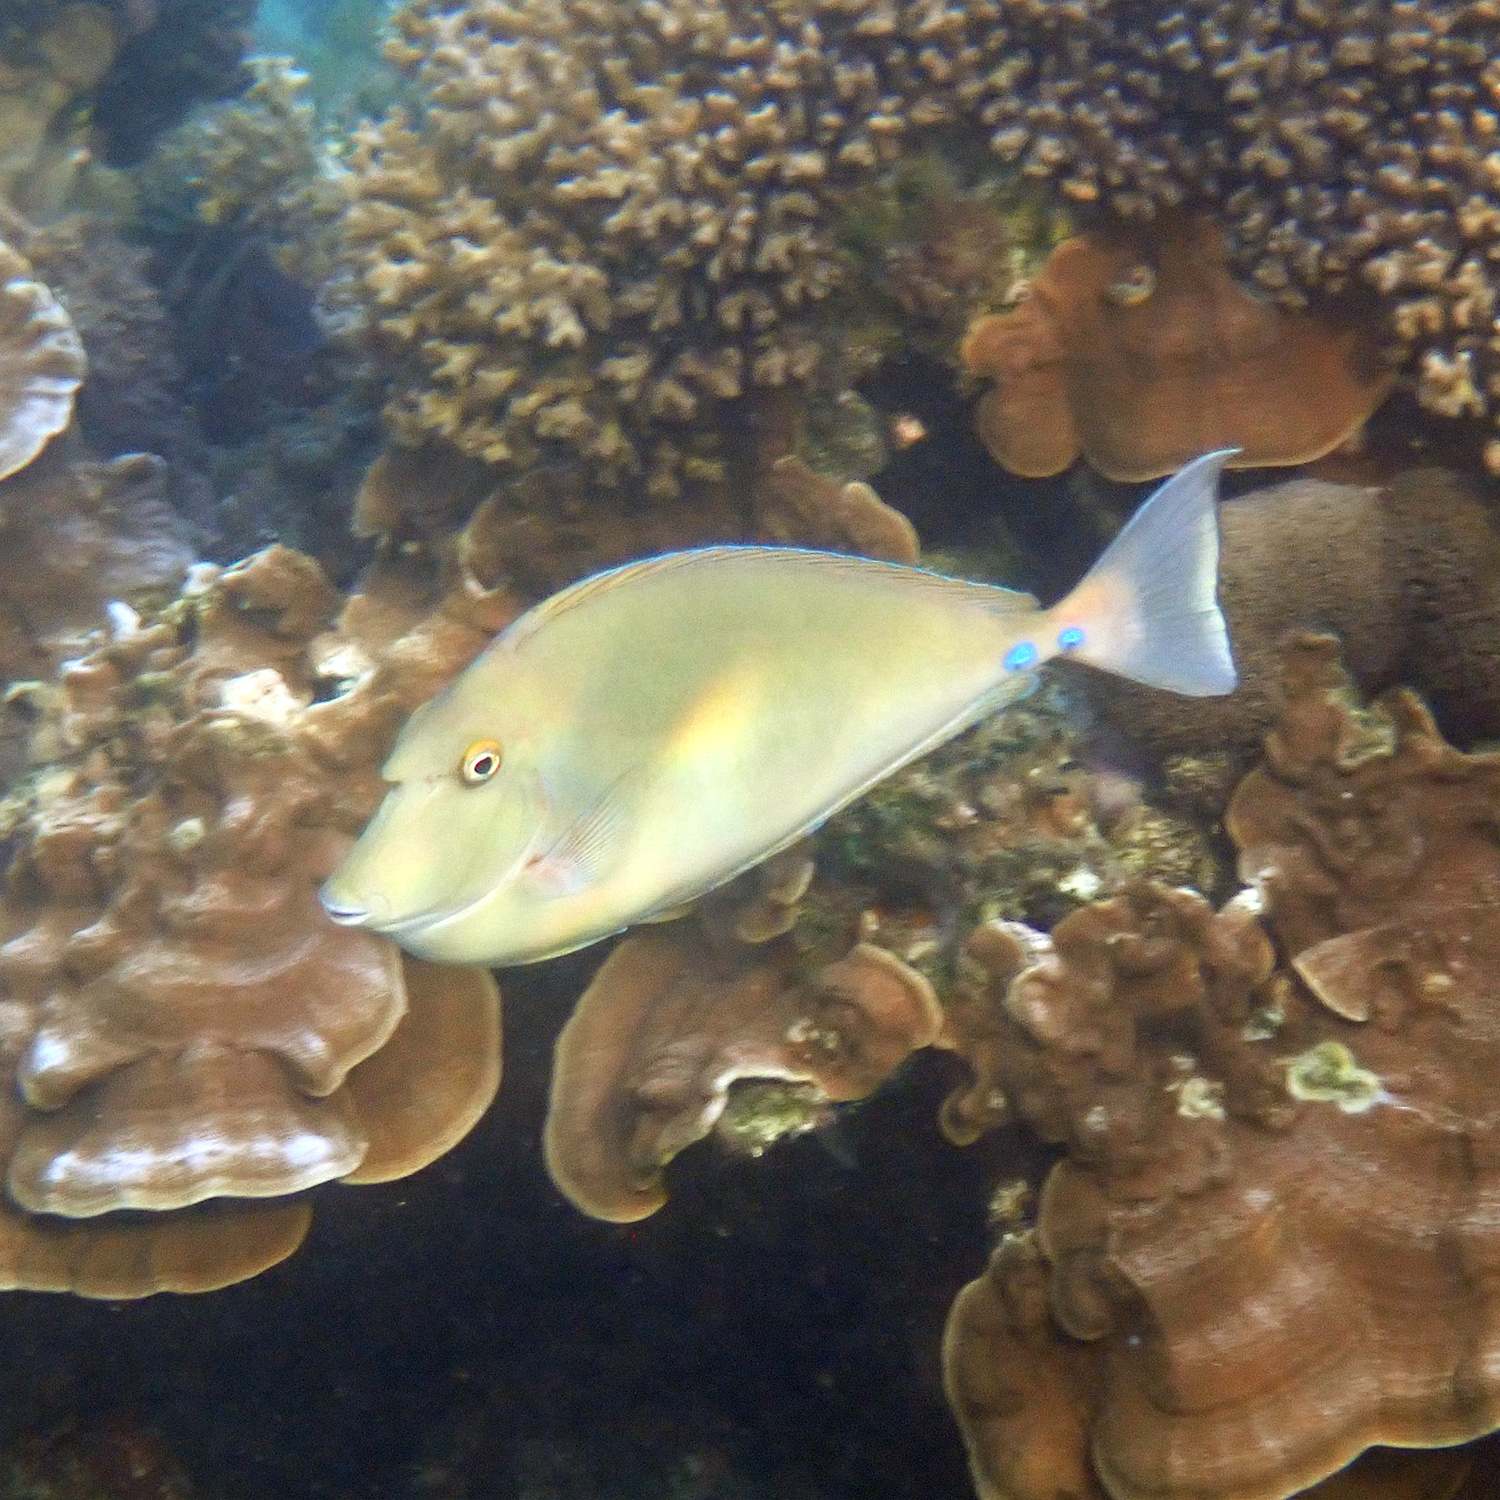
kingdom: Animalia
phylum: Chordata
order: Perciformes
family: Acanthuridae
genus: Naso
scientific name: Naso unicornis
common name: Bluespine unicornfish
